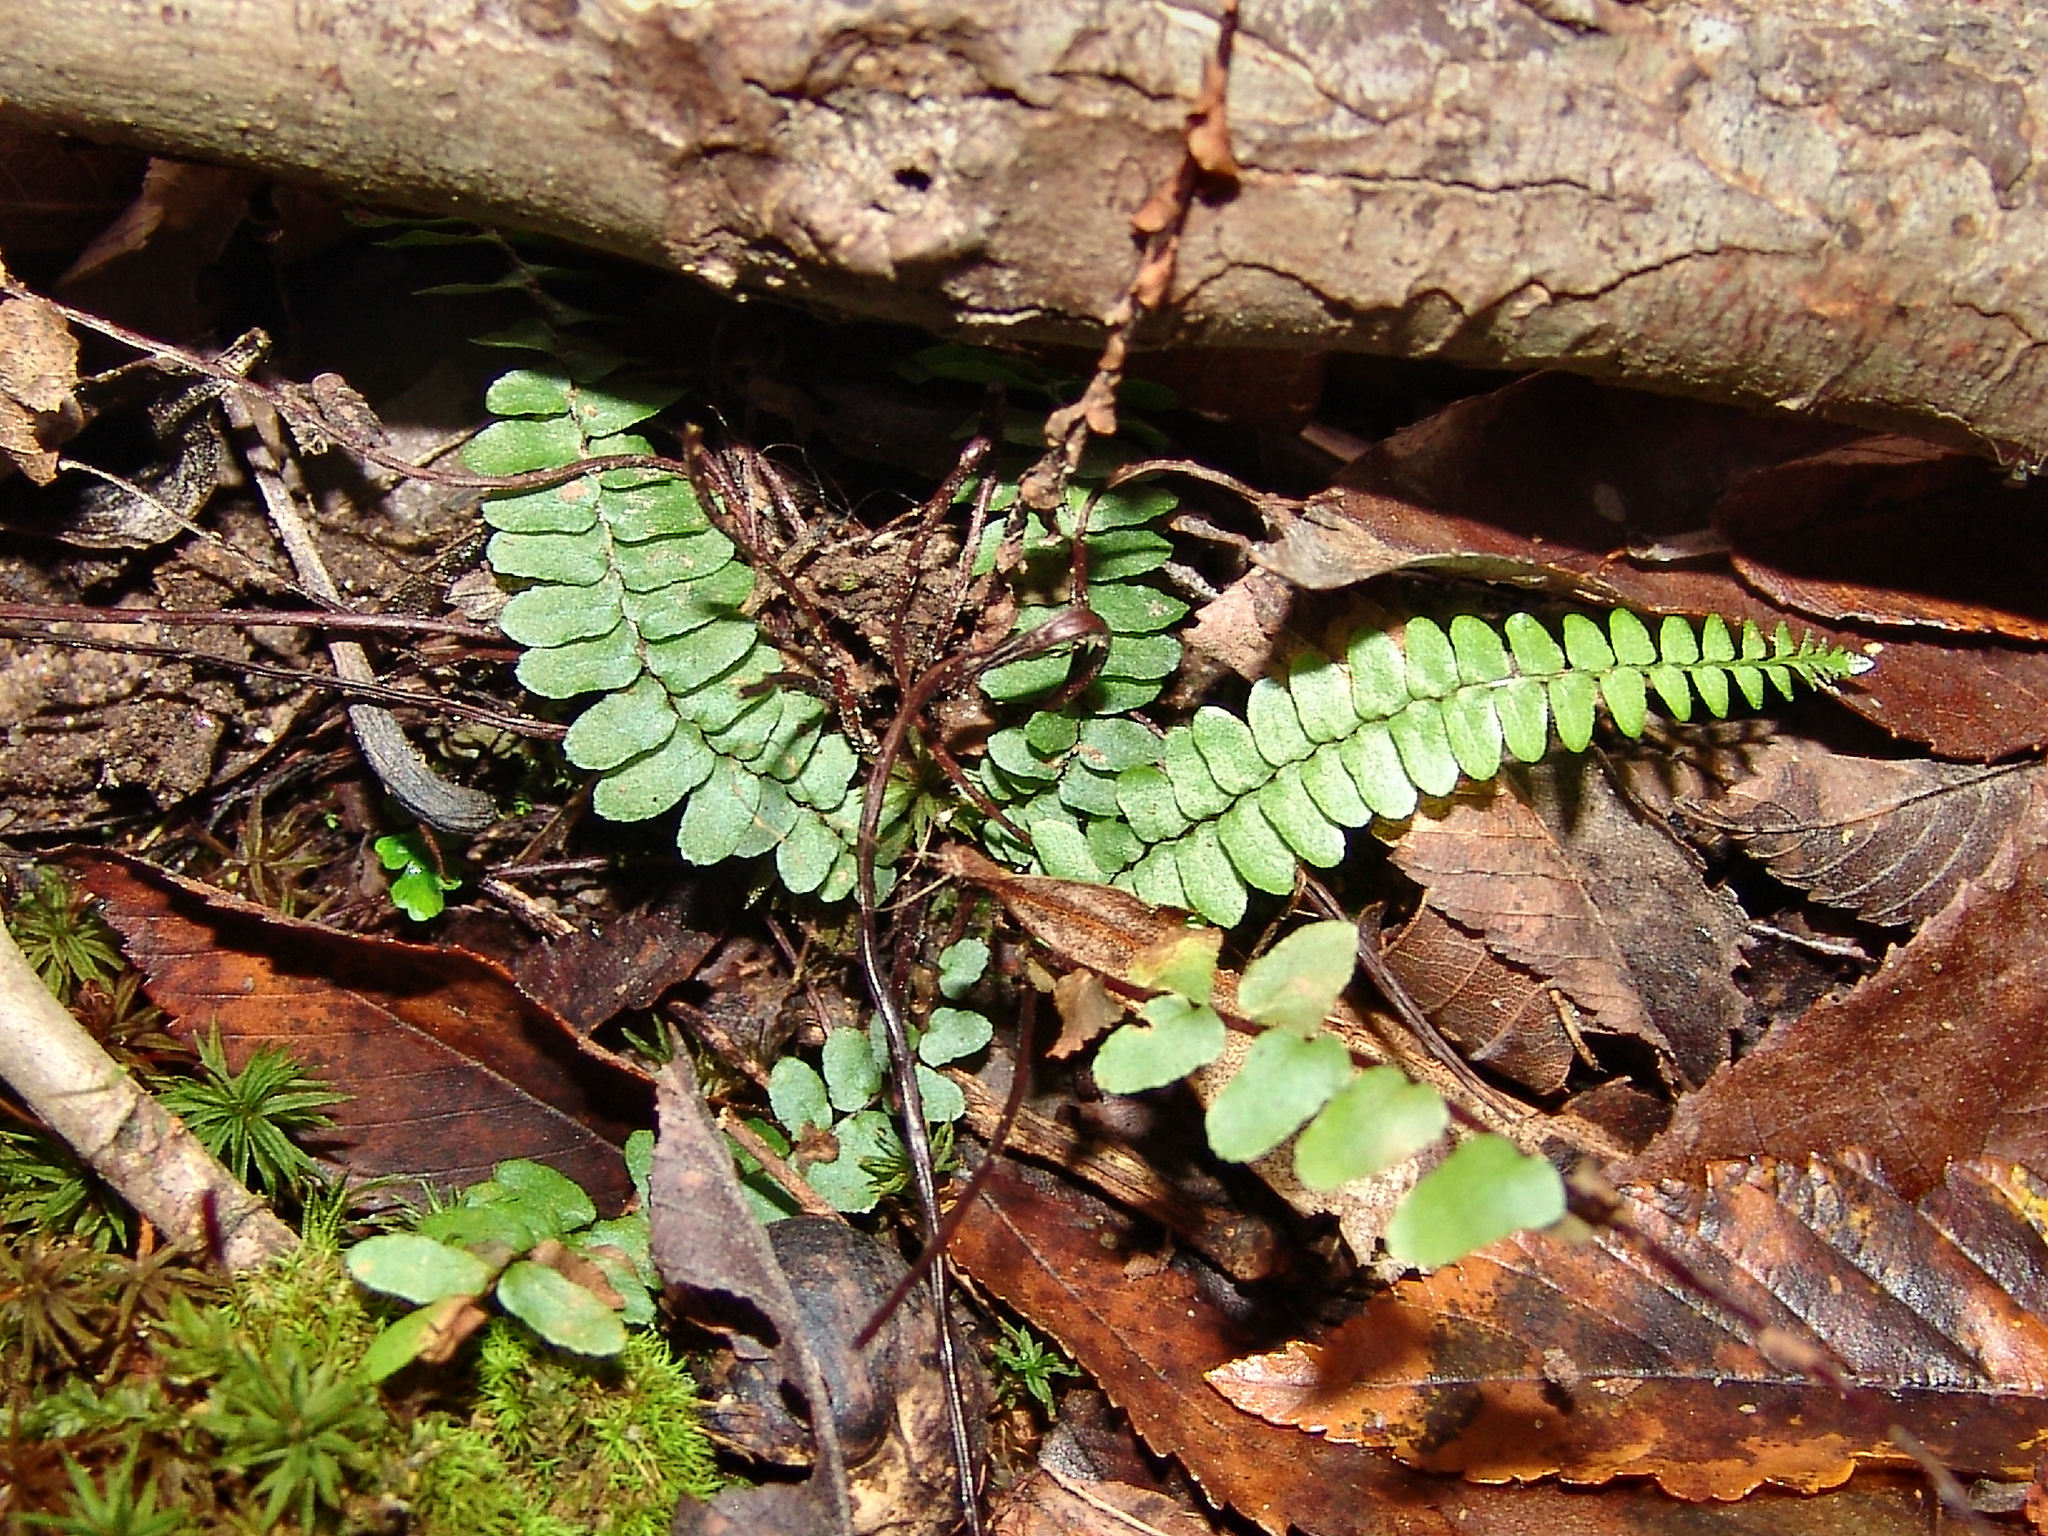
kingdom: Plantae
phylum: Tracheophyta
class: Polypodiopsida
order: Polypodiales
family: Aspleniaceae
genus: Asplenium
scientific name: Asplenium platyneuron
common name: Ebony spleenwort
